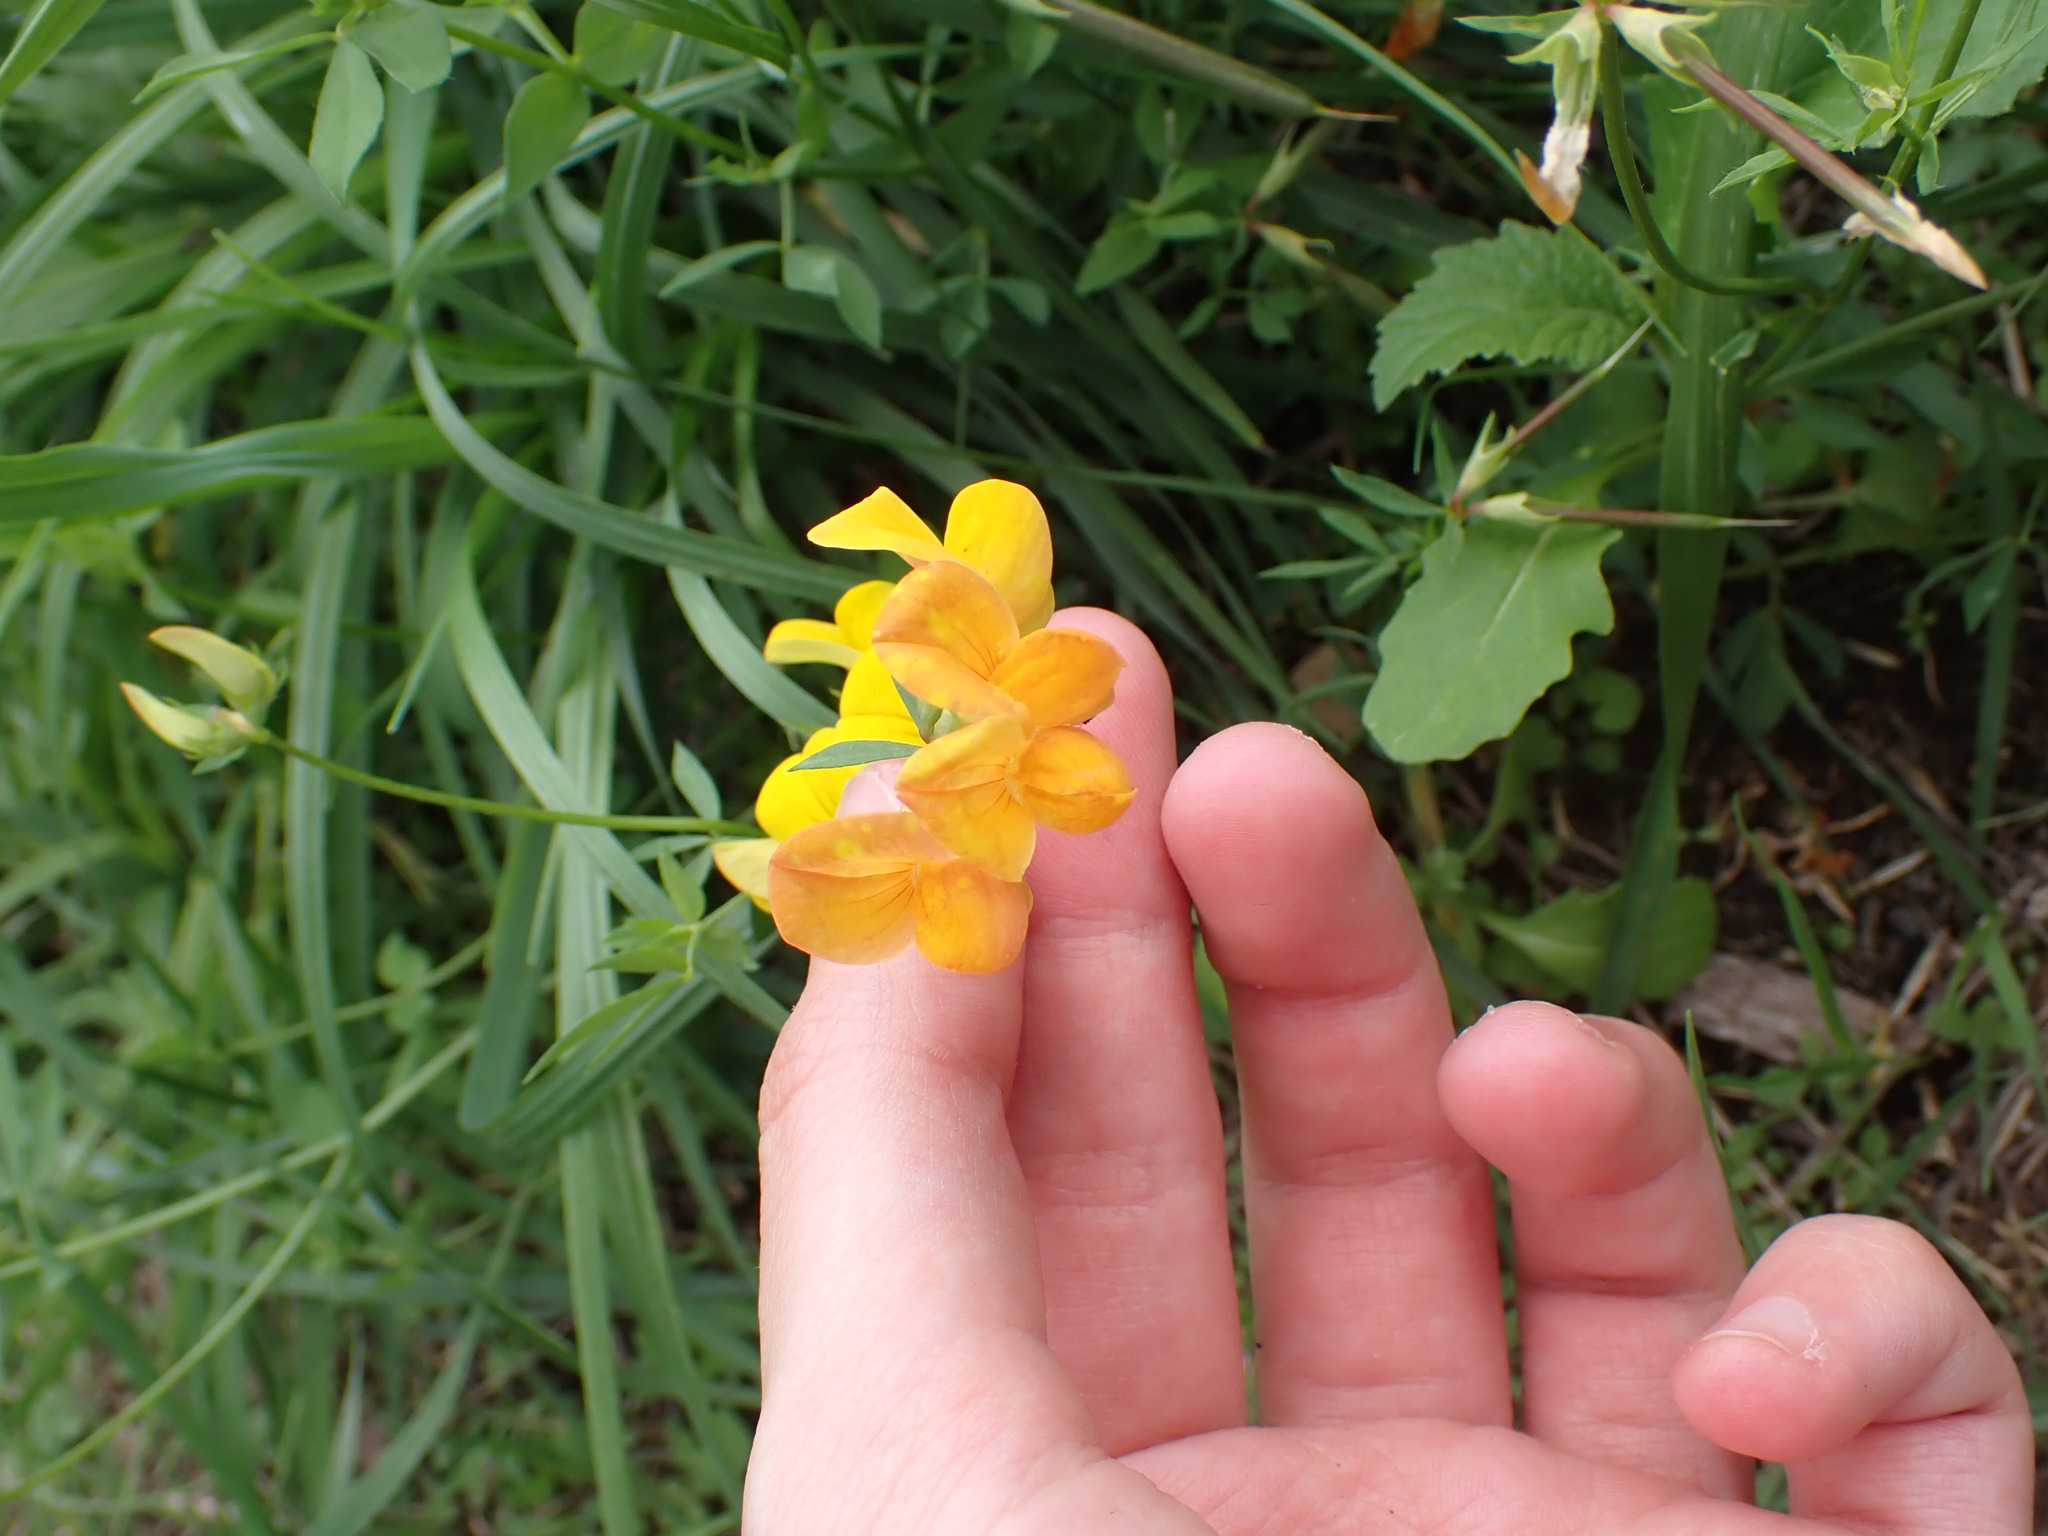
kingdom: Plantae
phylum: Tracheophyta
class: Magnoliopsida
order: Fabales
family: Fabaceae
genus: Lotus
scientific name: Lotus corniculatus
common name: Common bird's-foot-trefoil
